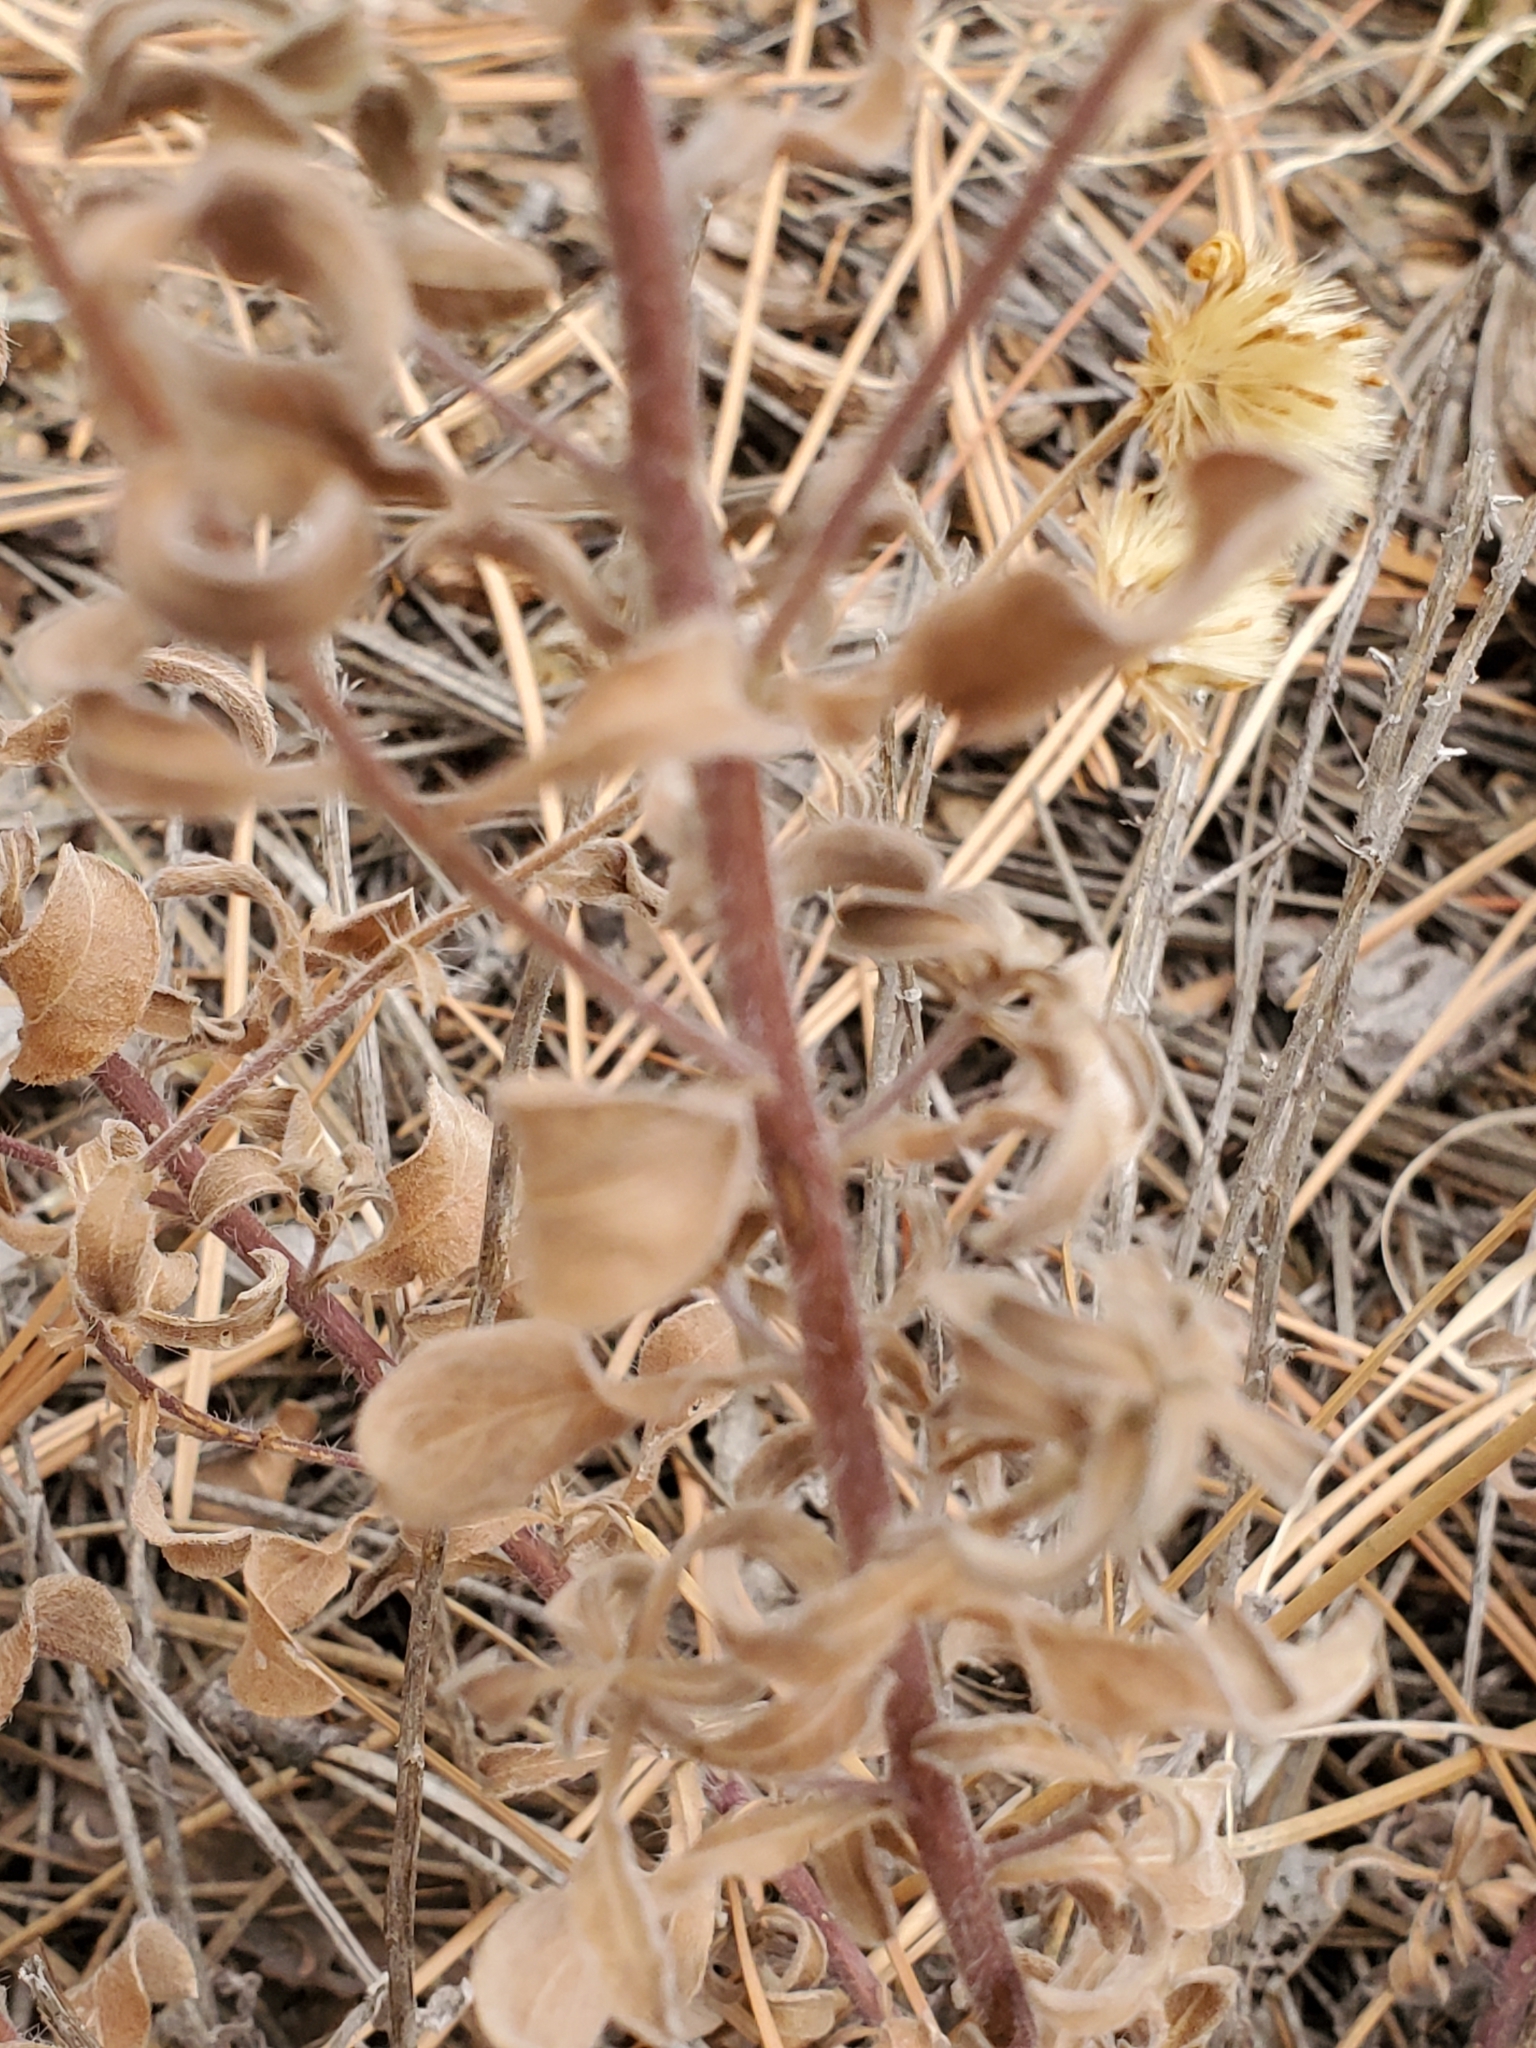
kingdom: Plantae
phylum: Tracheophyta
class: Magnoliopsida
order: Asterales
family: Asteraceae
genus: Heterotheca
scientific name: Heterotheca hirsutissima
